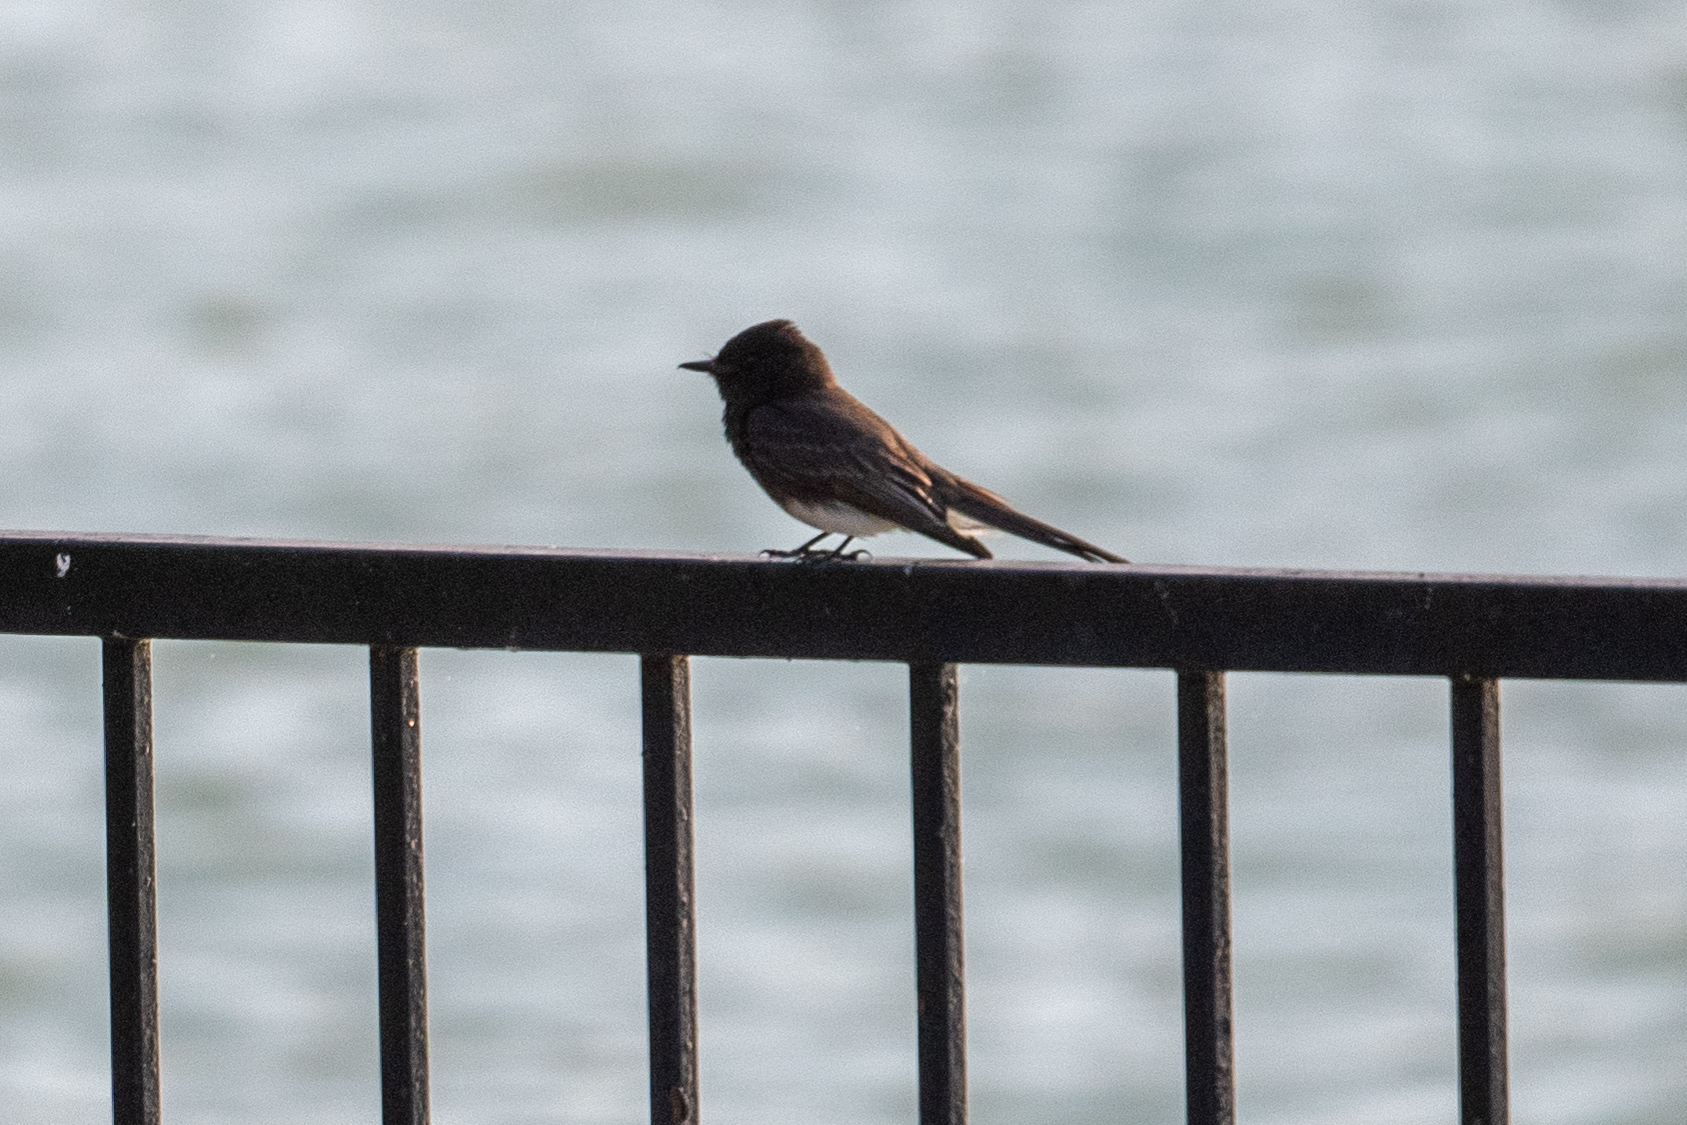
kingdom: Animalia
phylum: Chordata
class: Aves
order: Passeriformes
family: Tyrannidae
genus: Sayornis
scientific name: Sayornis nigricans
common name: Black phoebe
